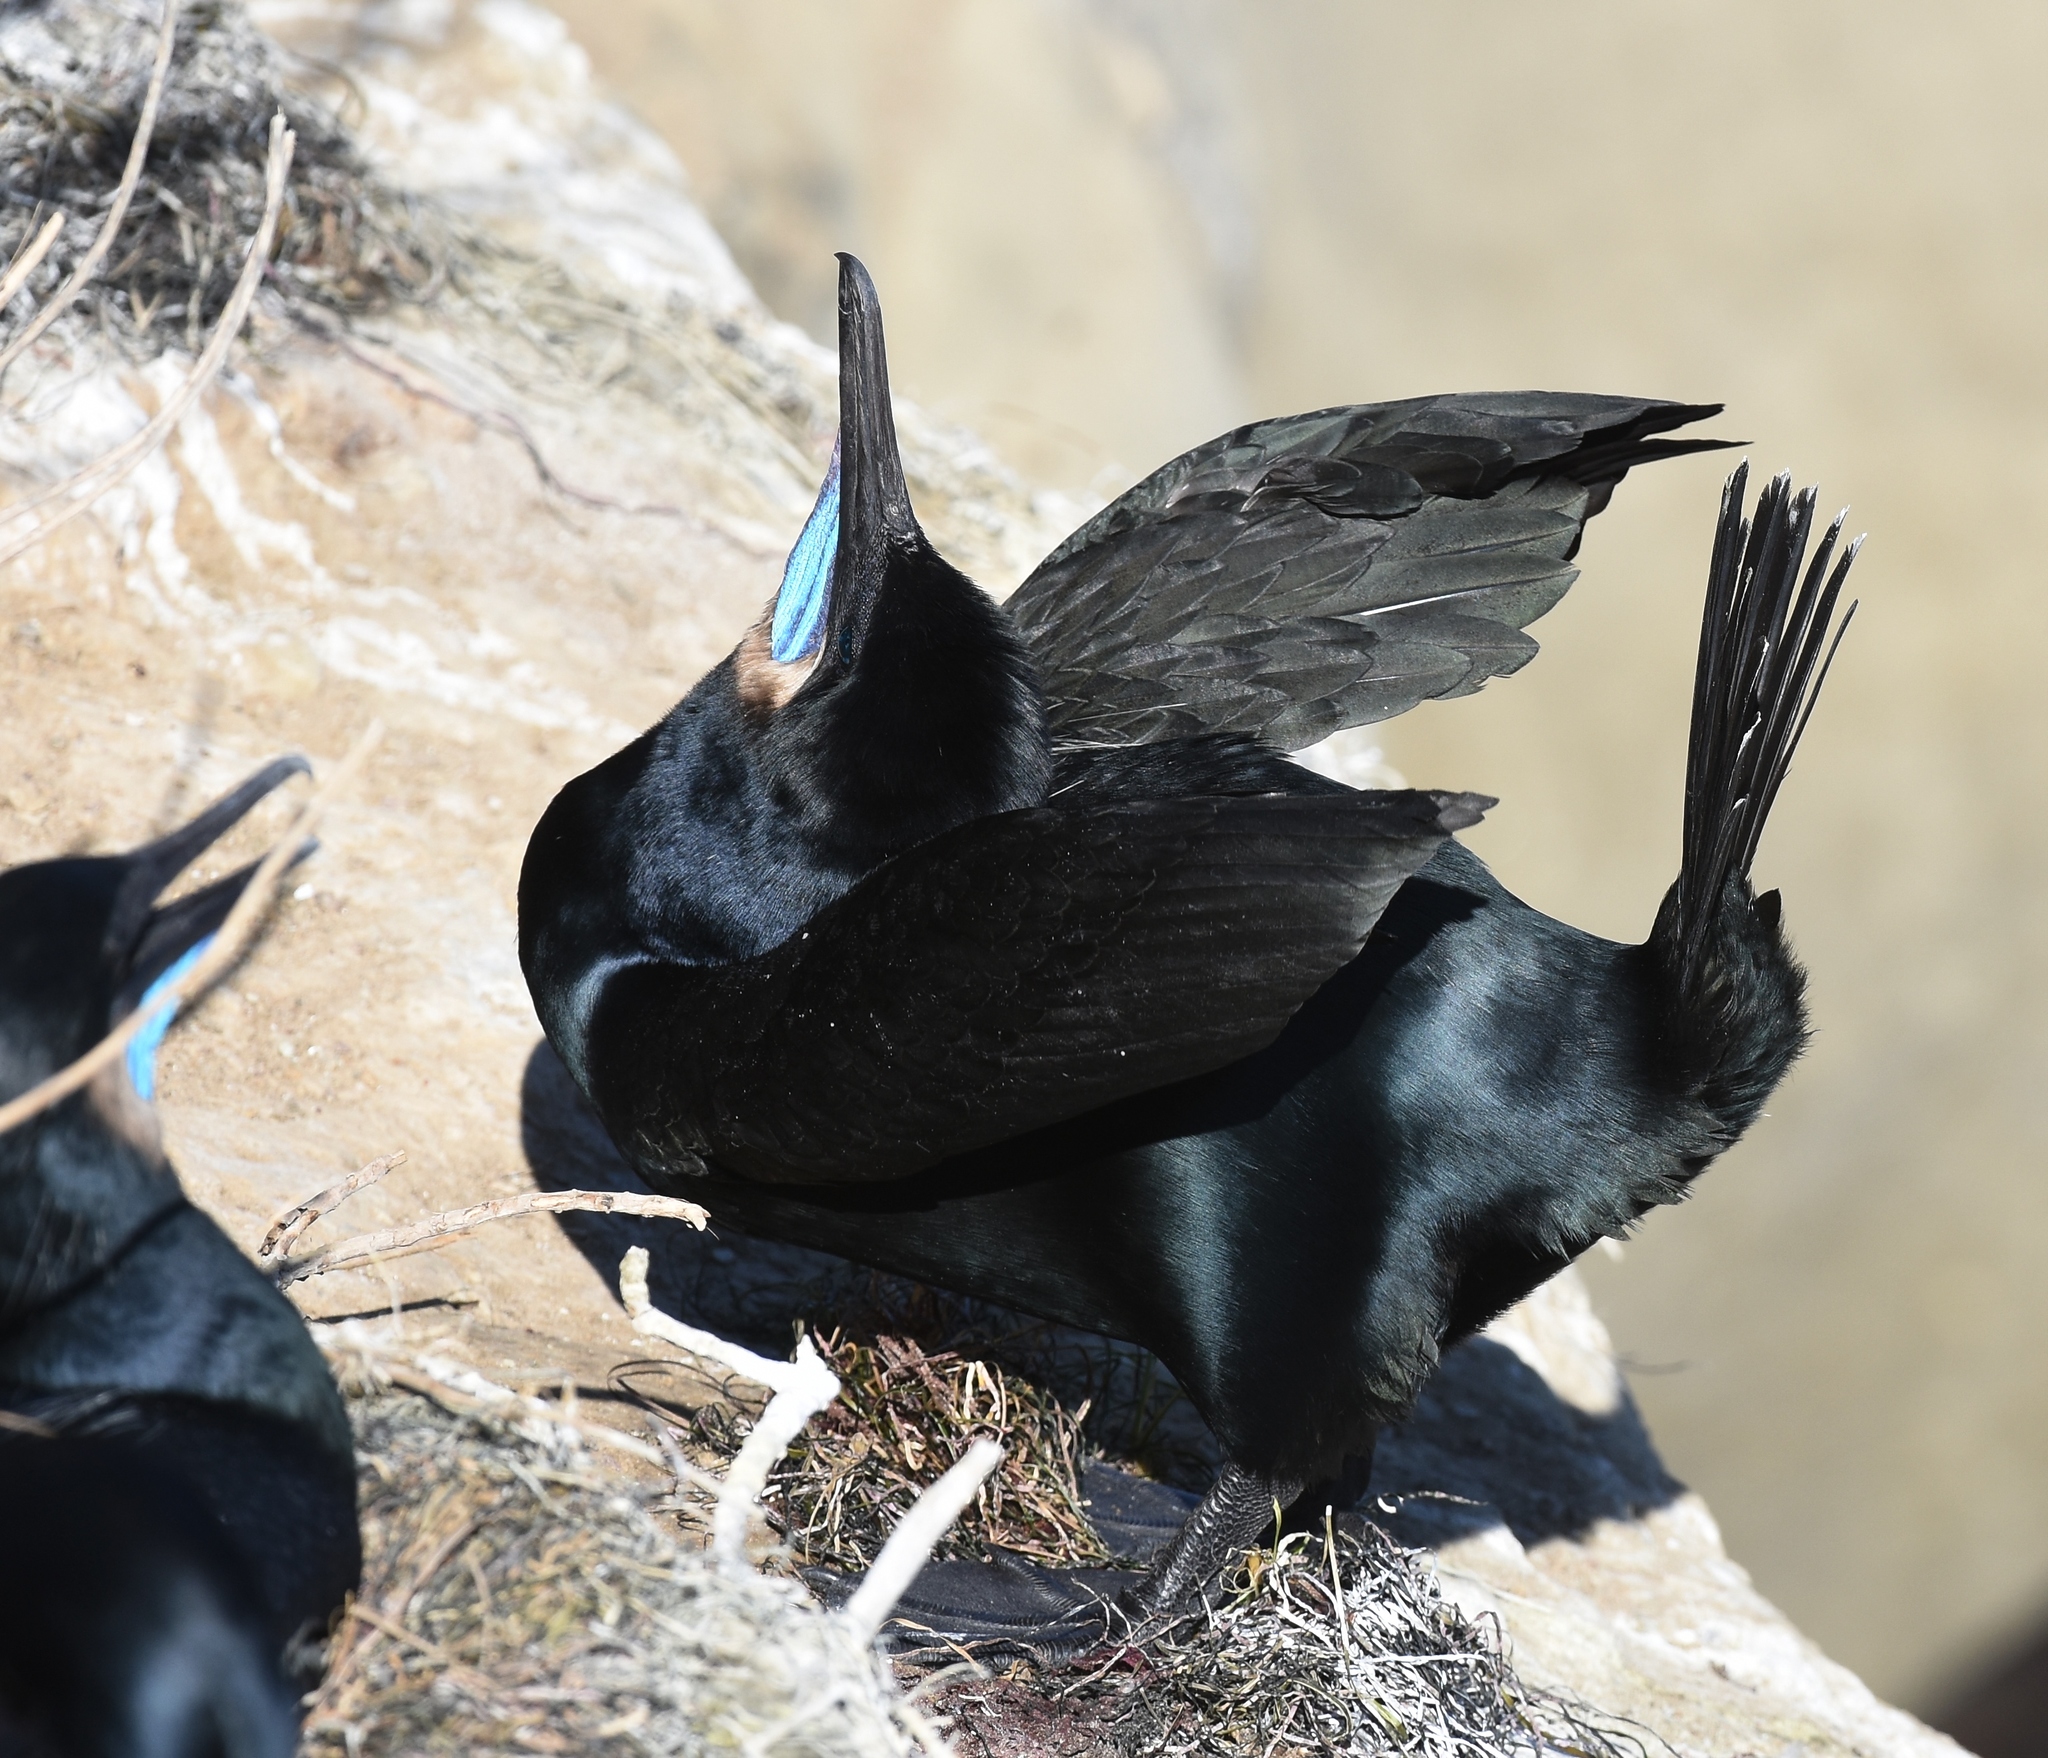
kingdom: Animalia
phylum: Chordata
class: Aves
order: Suliformes
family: Phalacrocoracidae
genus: Urile
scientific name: Urile penicillatus
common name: Brandt's cormorant
